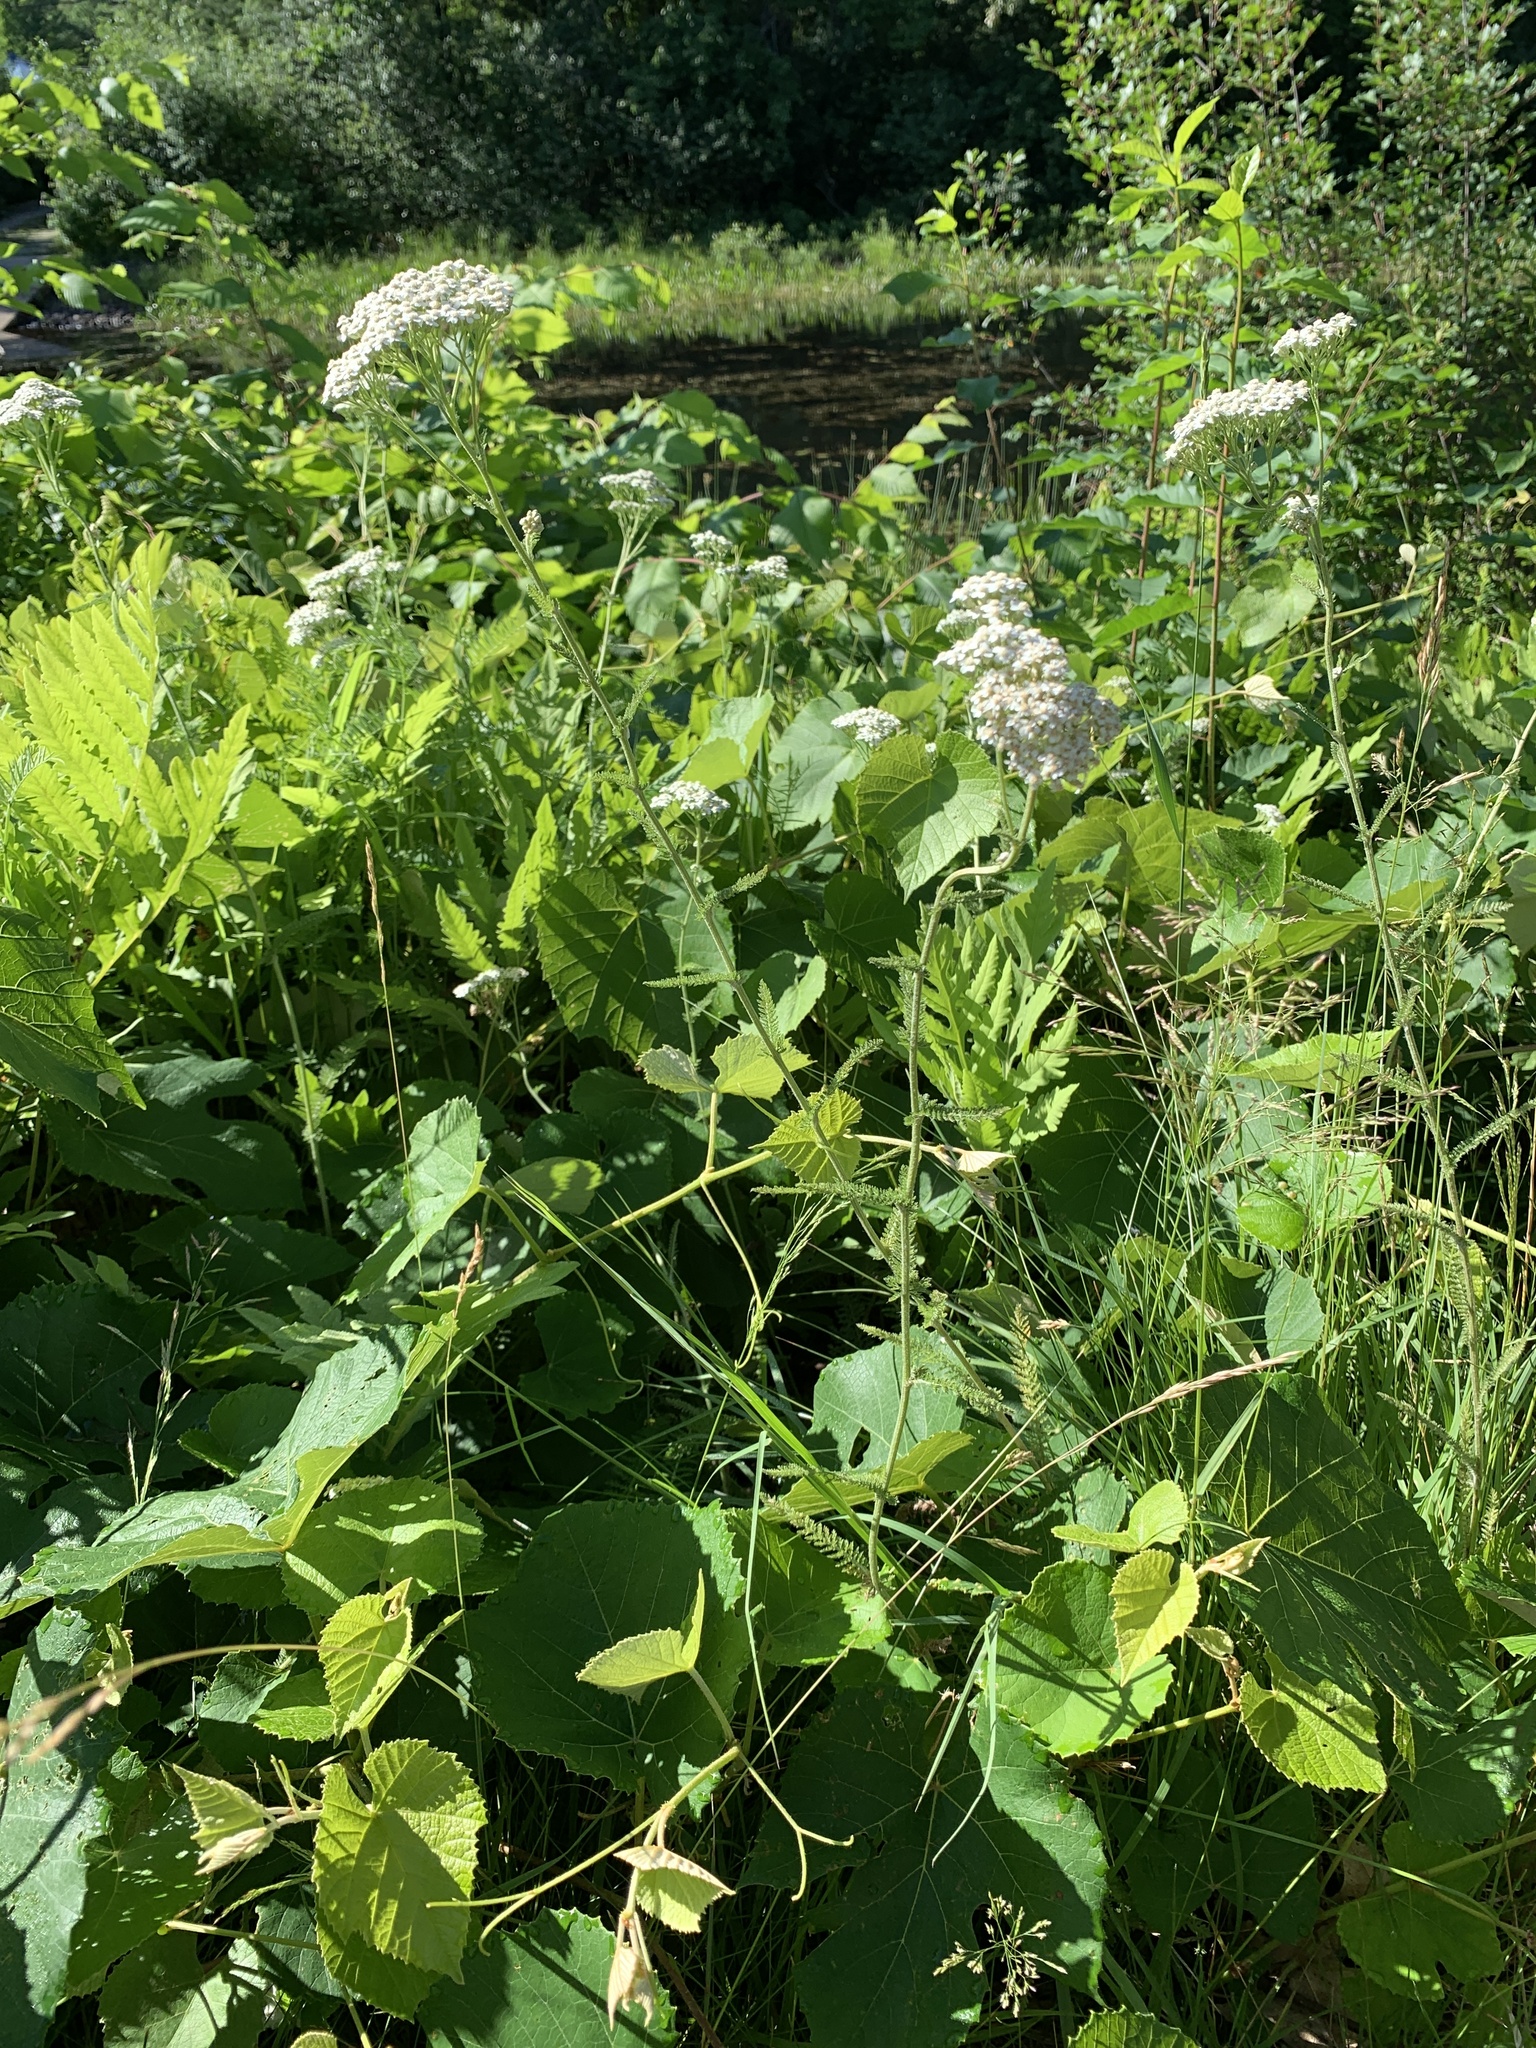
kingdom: Plantae
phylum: Tracheophyta
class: Magnoliopsida
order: Asterales
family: Asteraceae
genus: Achillea
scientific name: Achillea millefolium
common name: Yarrow
